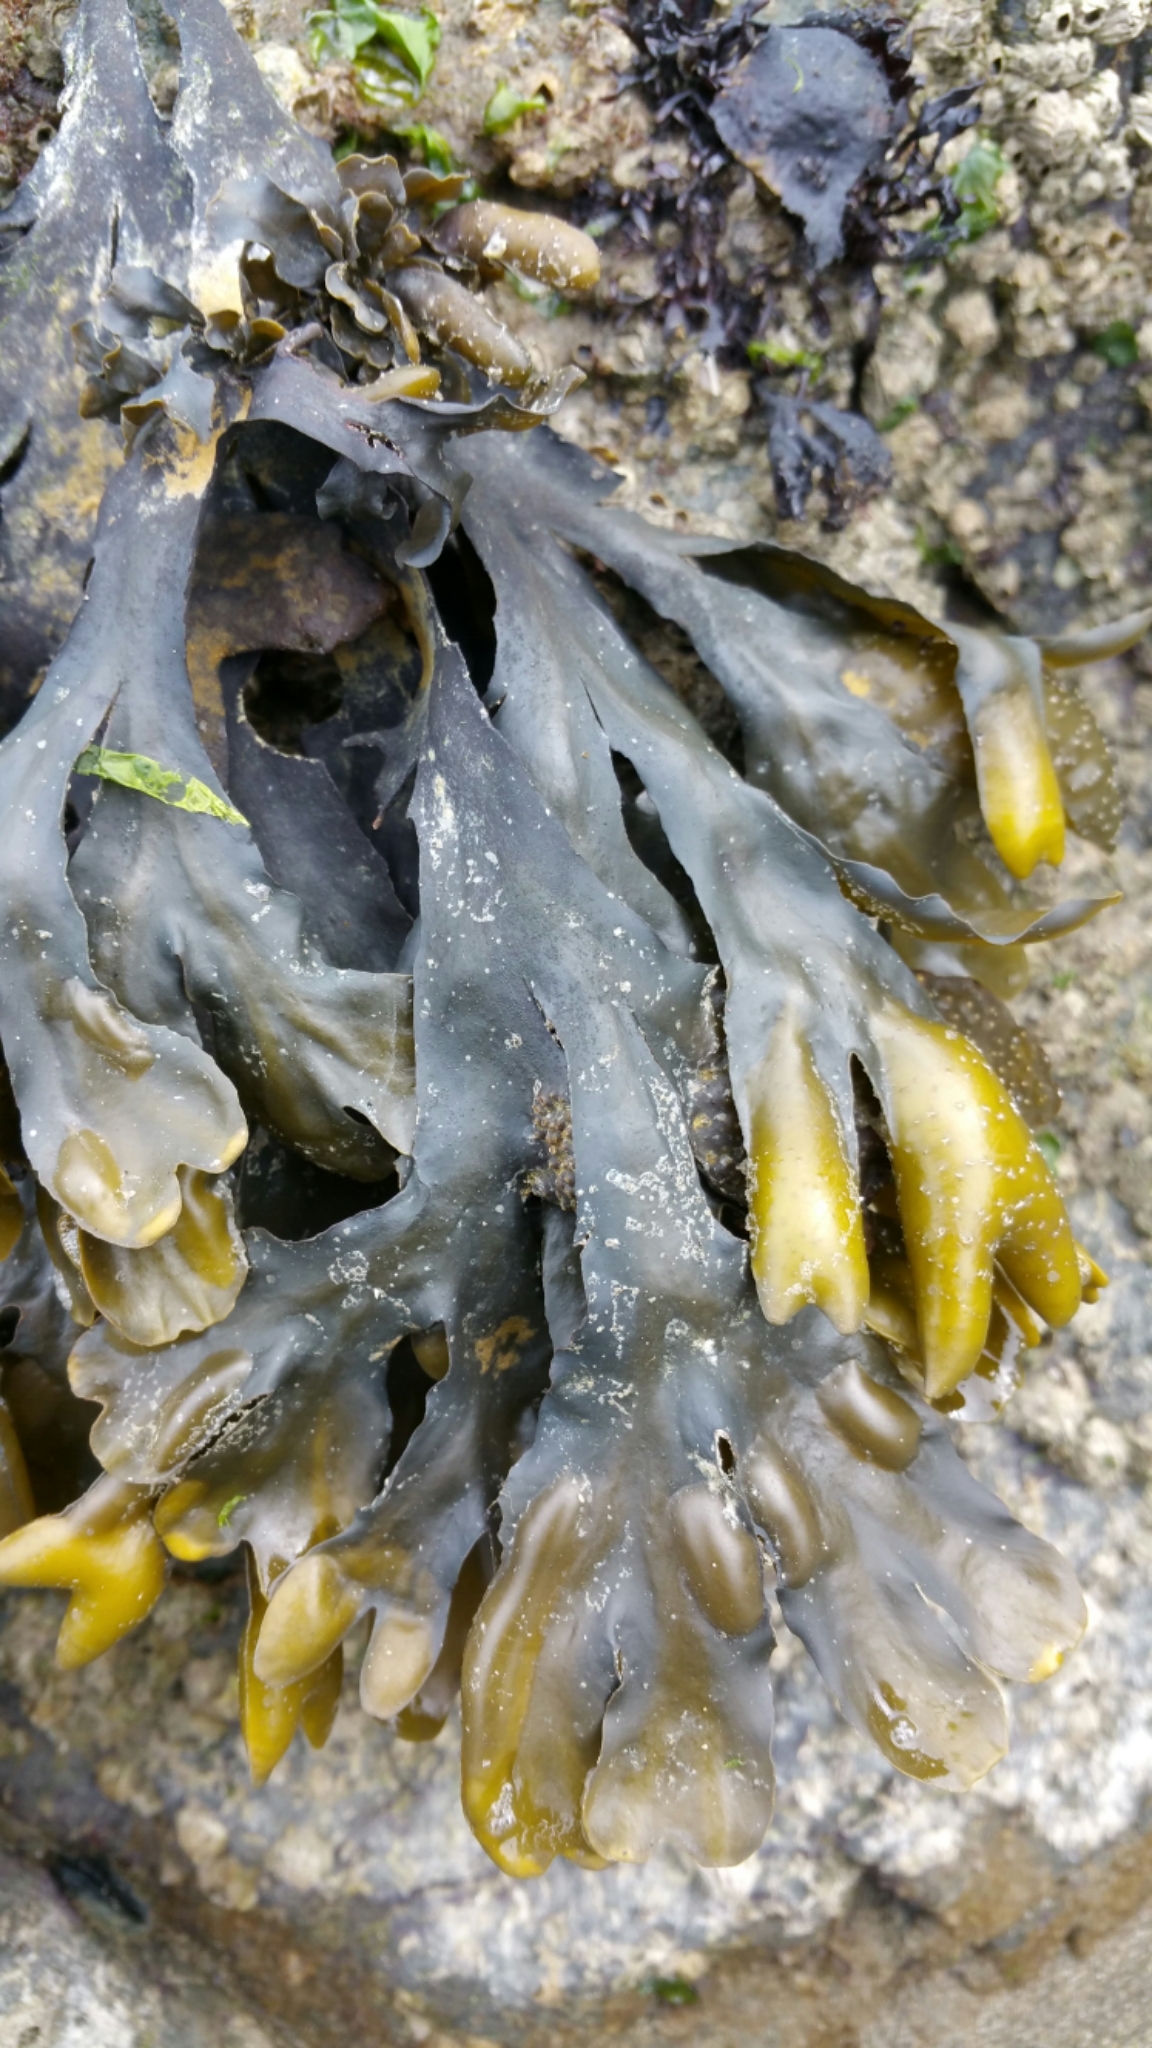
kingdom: Chromista
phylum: Ochrophyta
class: Phaeophyceae
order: Fucales
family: Fucaceae
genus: Fucus
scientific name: Fucus distichus
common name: Rockweed
